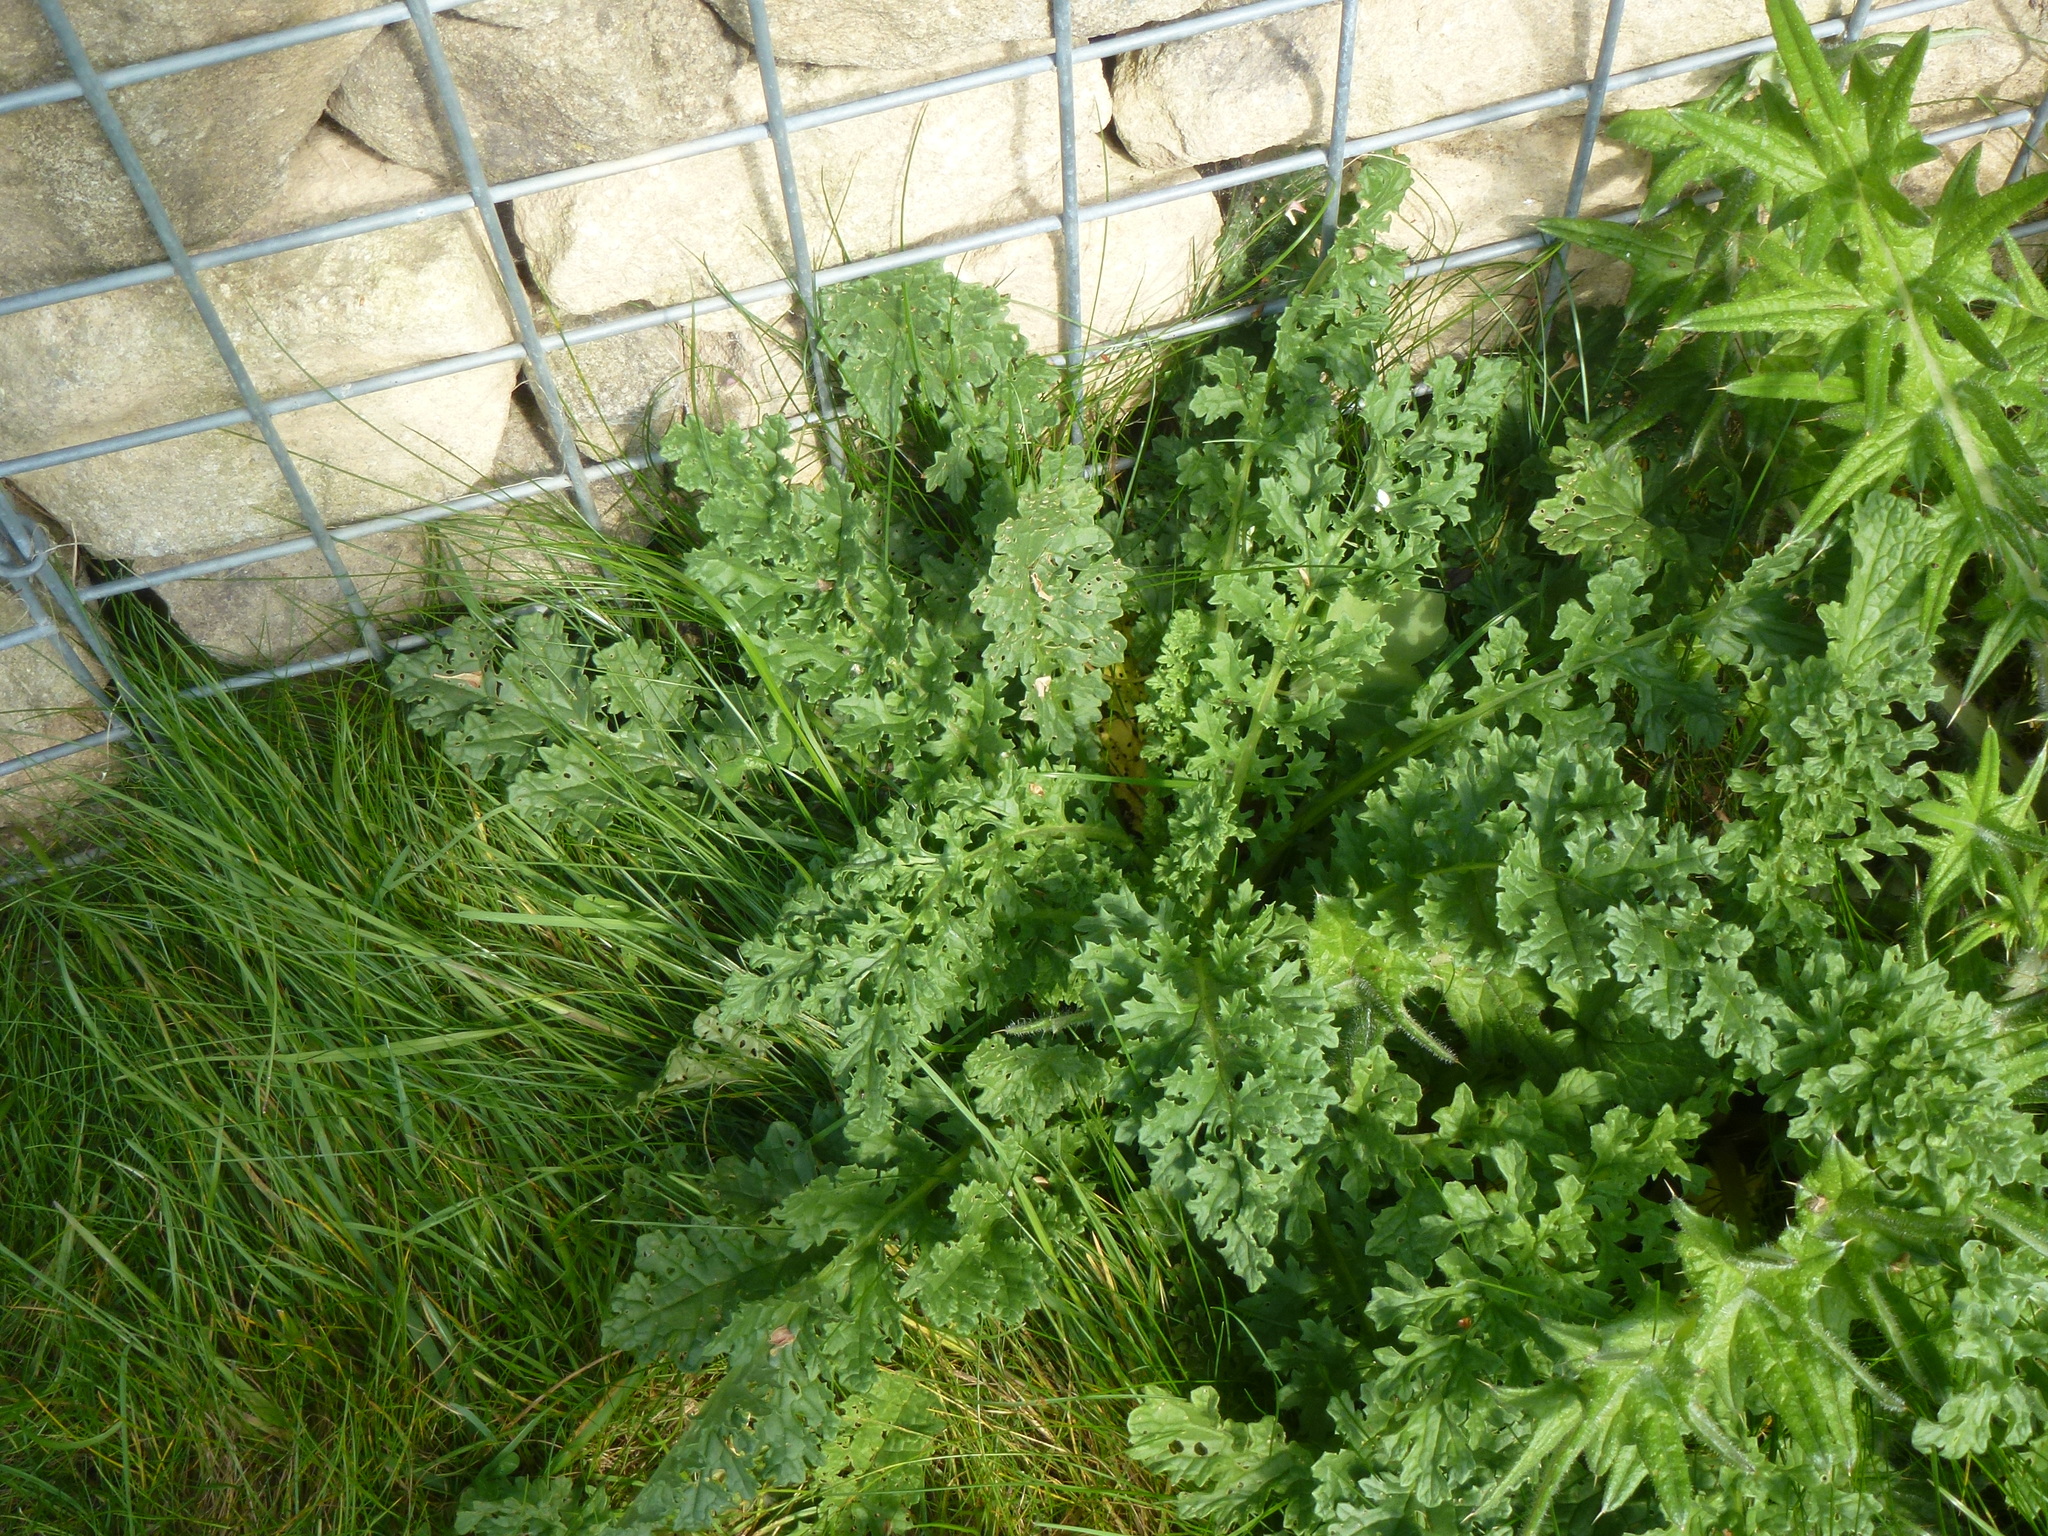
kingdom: Plantae
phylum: Tracheophyta
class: Magnoliopsida
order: Asterales
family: Asteraceae
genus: Jacobaea
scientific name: Jacobaea vulgaris
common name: Stinking willie
